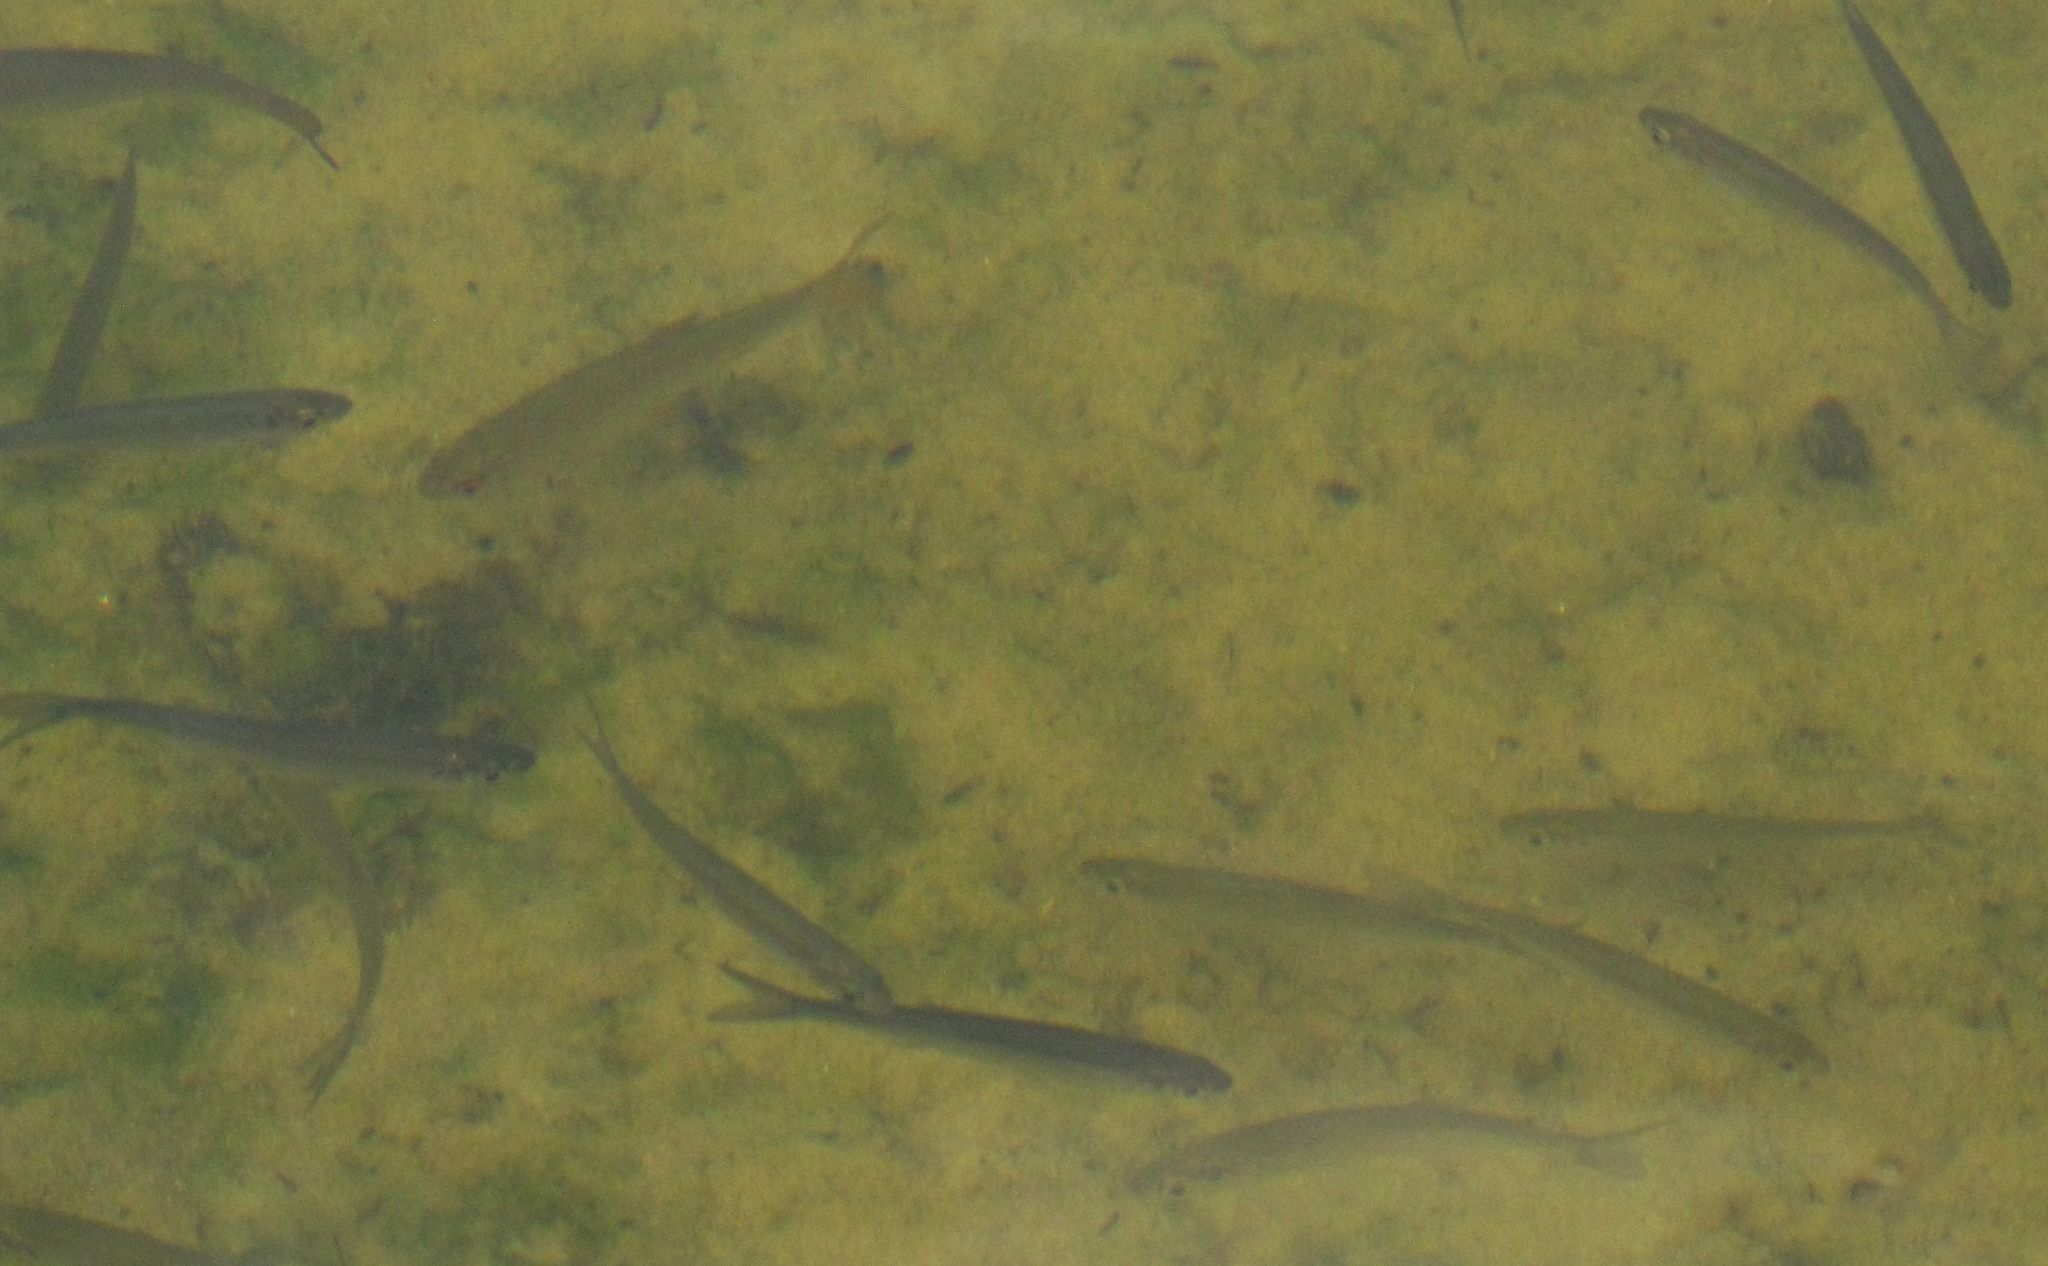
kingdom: Animalia
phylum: Chordata
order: Cypriniformes
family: Cyprinidae
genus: Alburnus
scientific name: Alburnus alburnus
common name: Bleak
